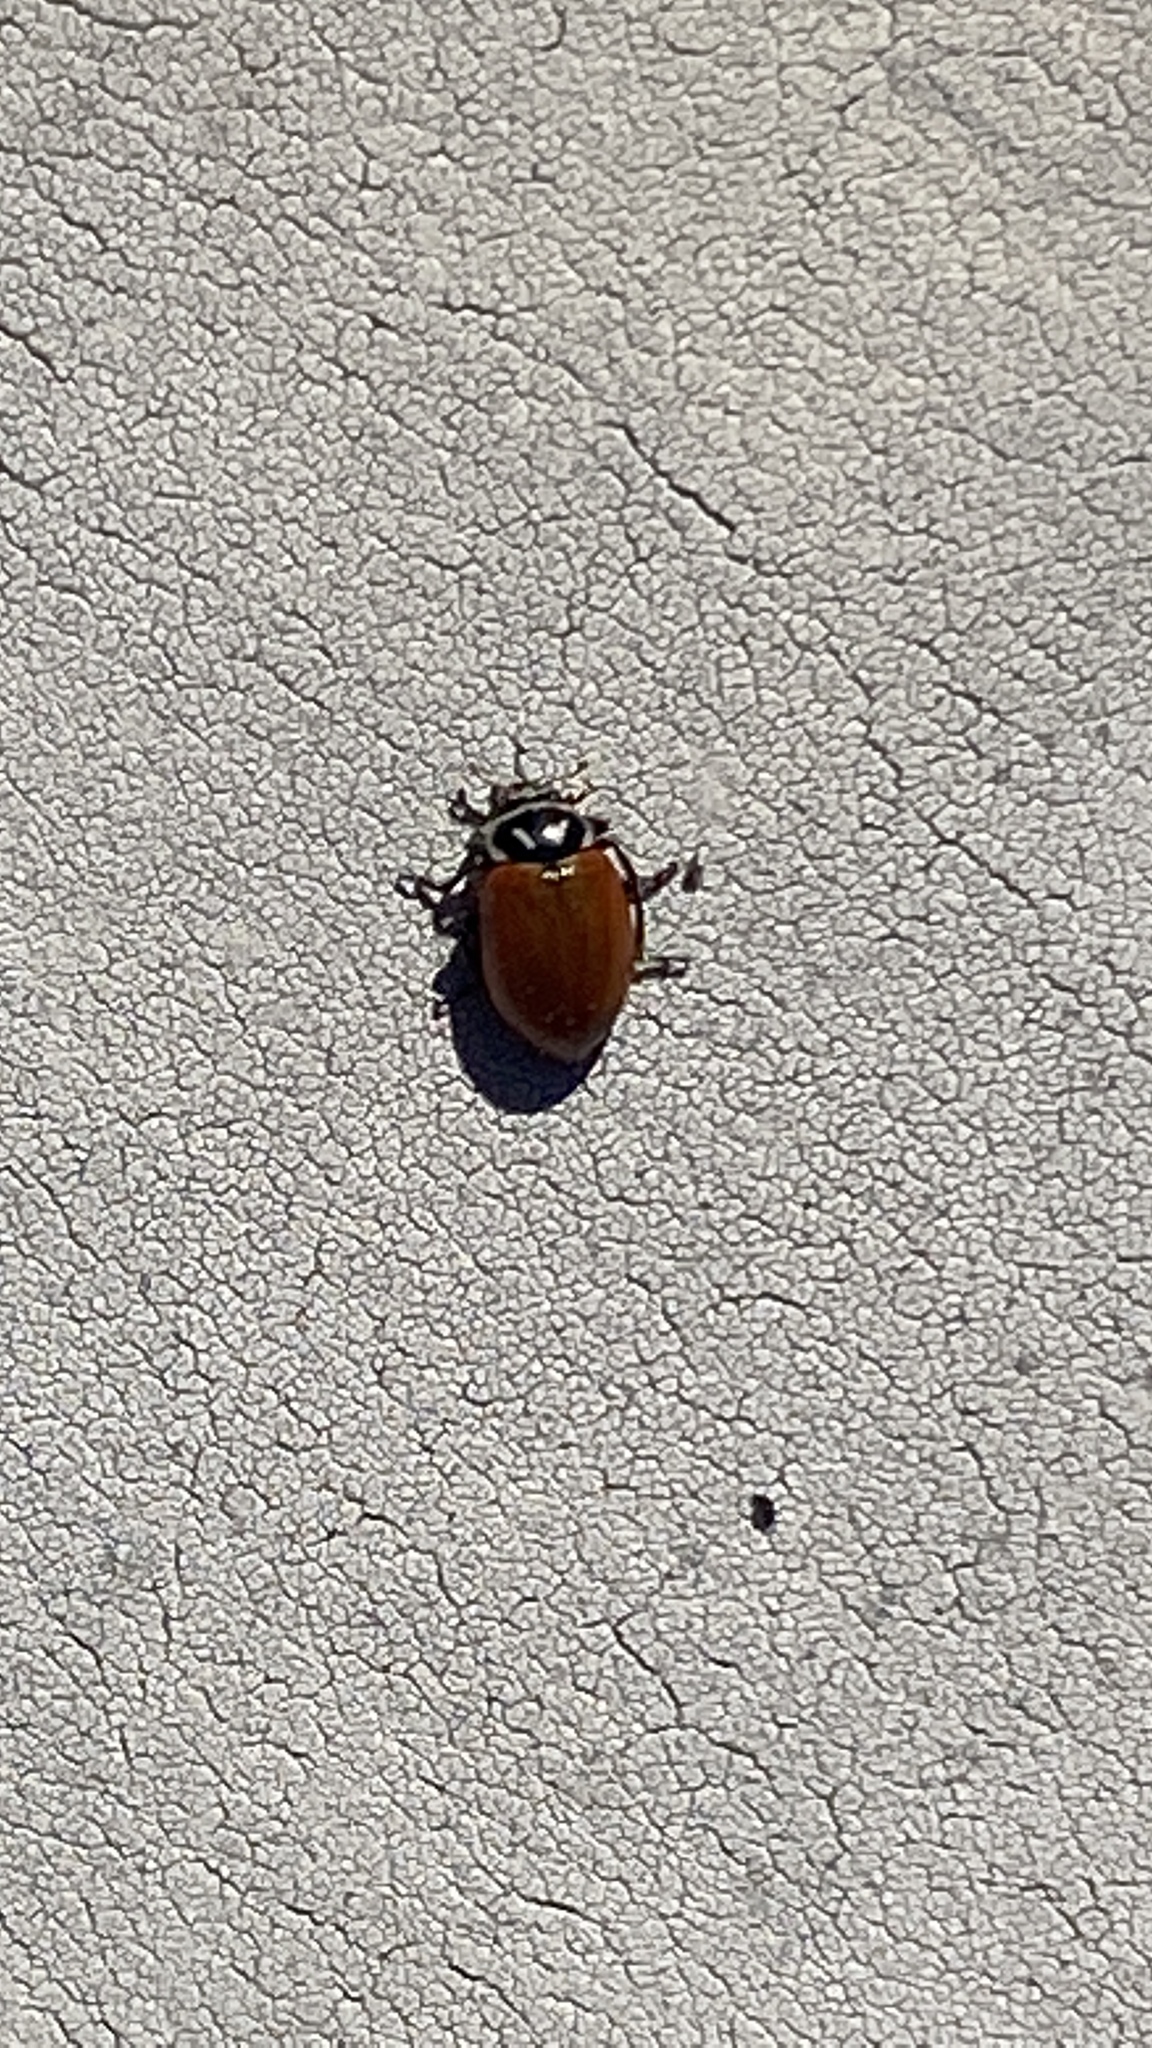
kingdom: Animalia
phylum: Arthropoda
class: Insecta
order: Coleoptera
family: Coccinellidae
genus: Hippodamia
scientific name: Hippodamia convergens
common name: Convergent lady beetle
